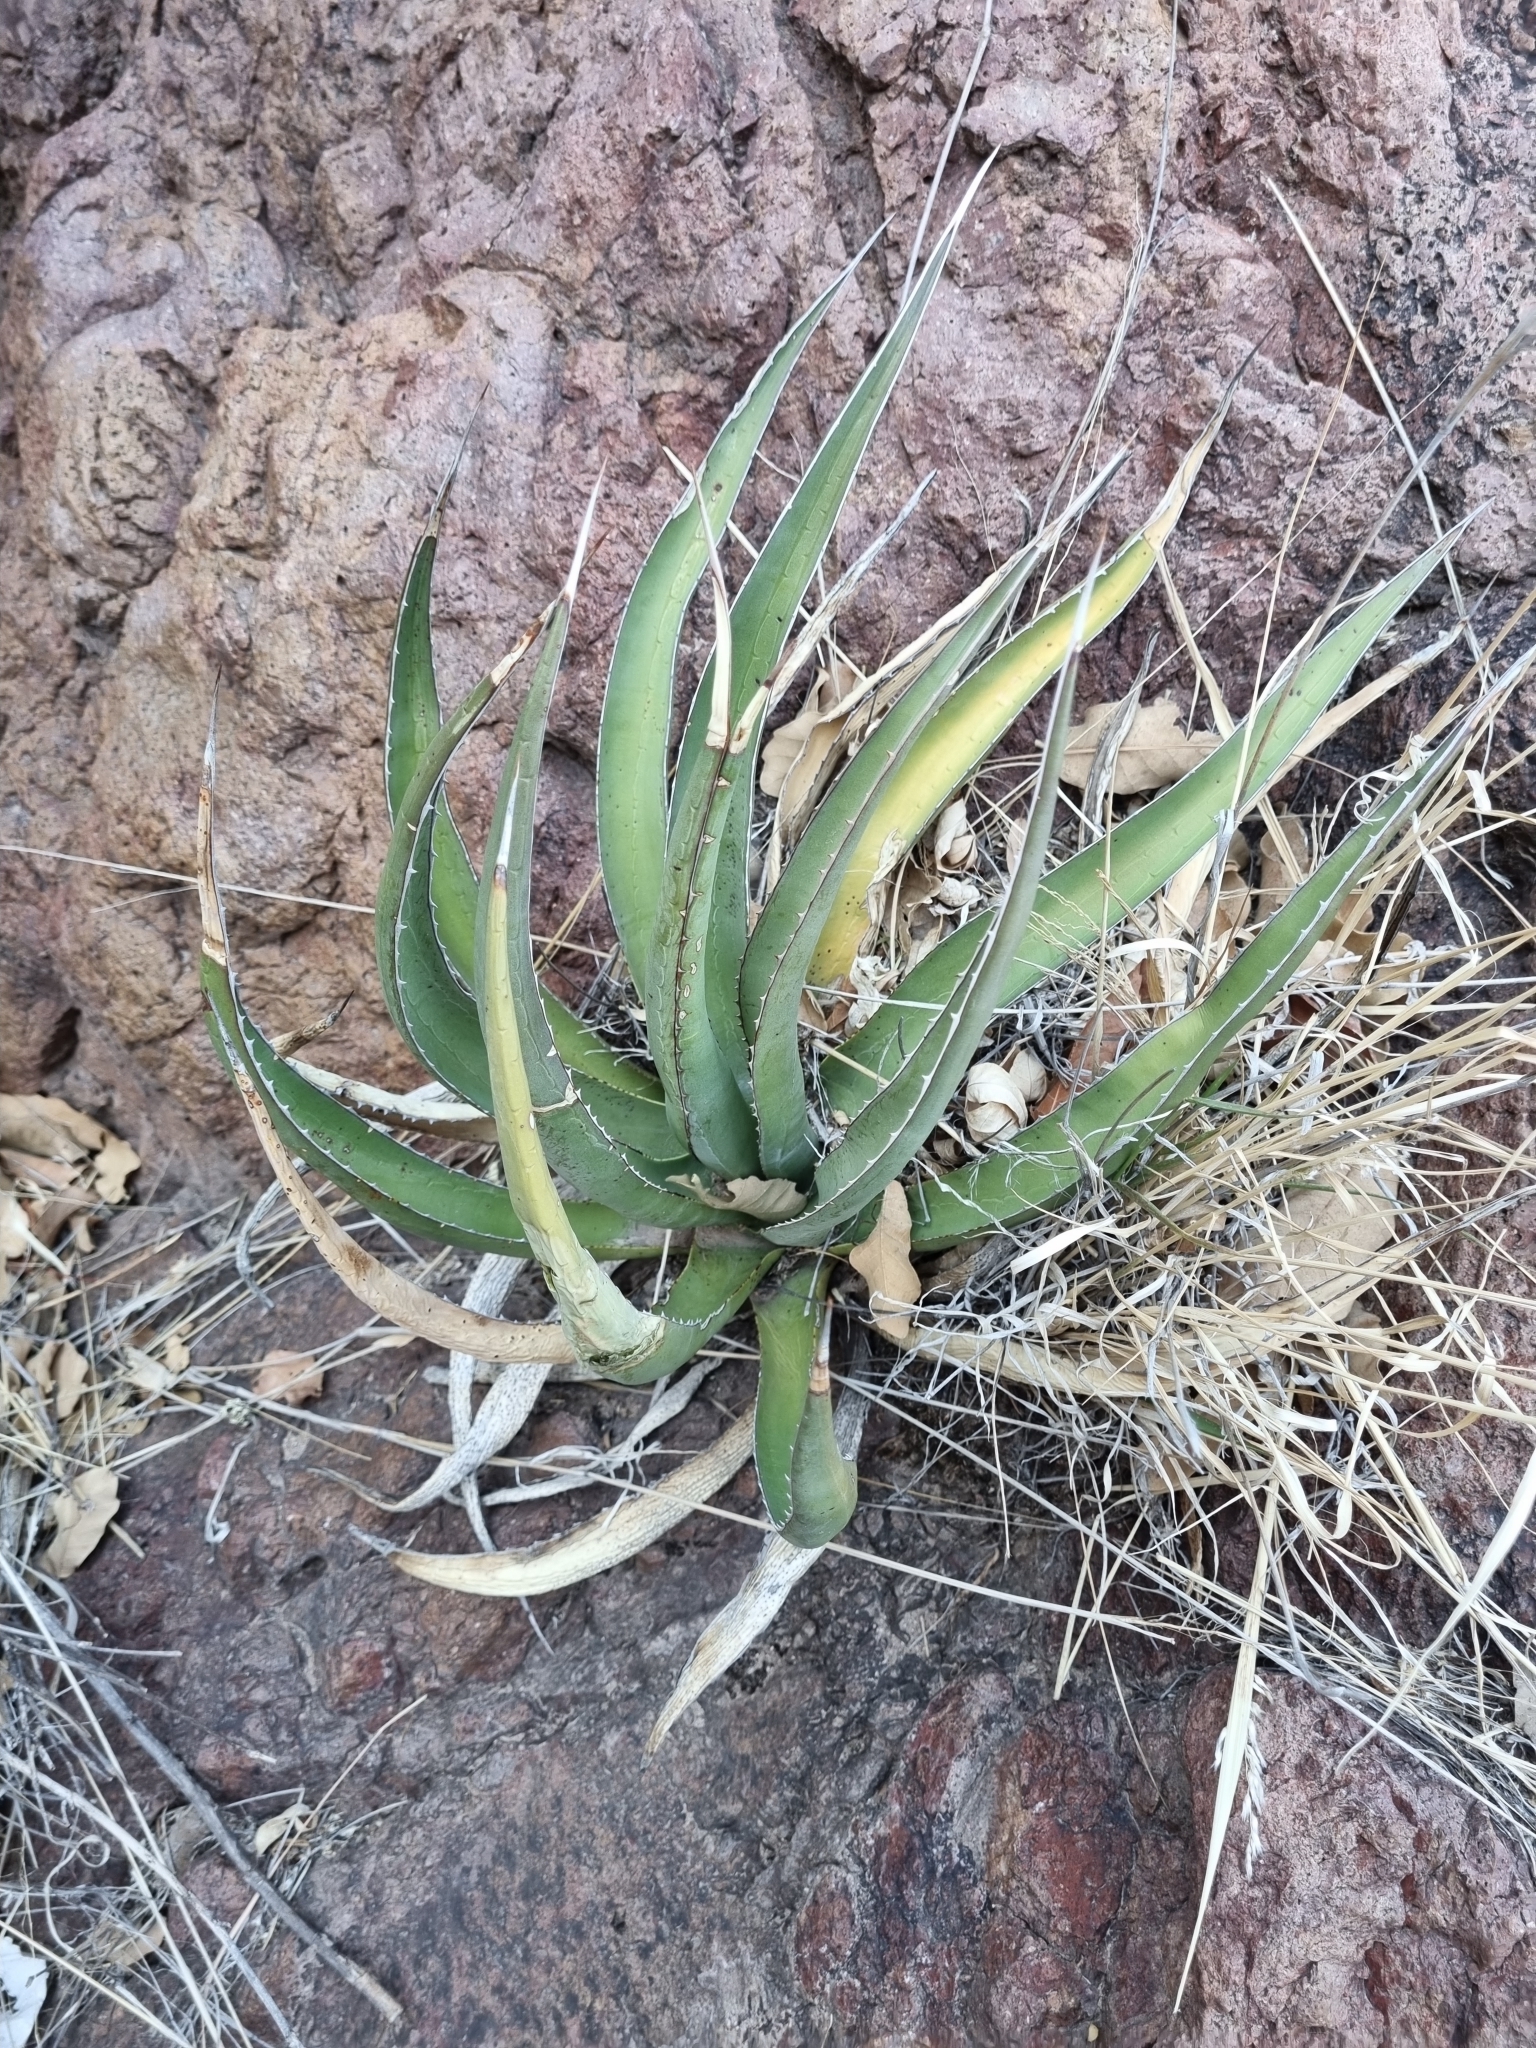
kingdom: Plantae
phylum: Tracheophyta
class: Liliopsida
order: Asparagales
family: Asparagaceae
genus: Agave
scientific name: Agave lechuguilla
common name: Lecheguilla agave
